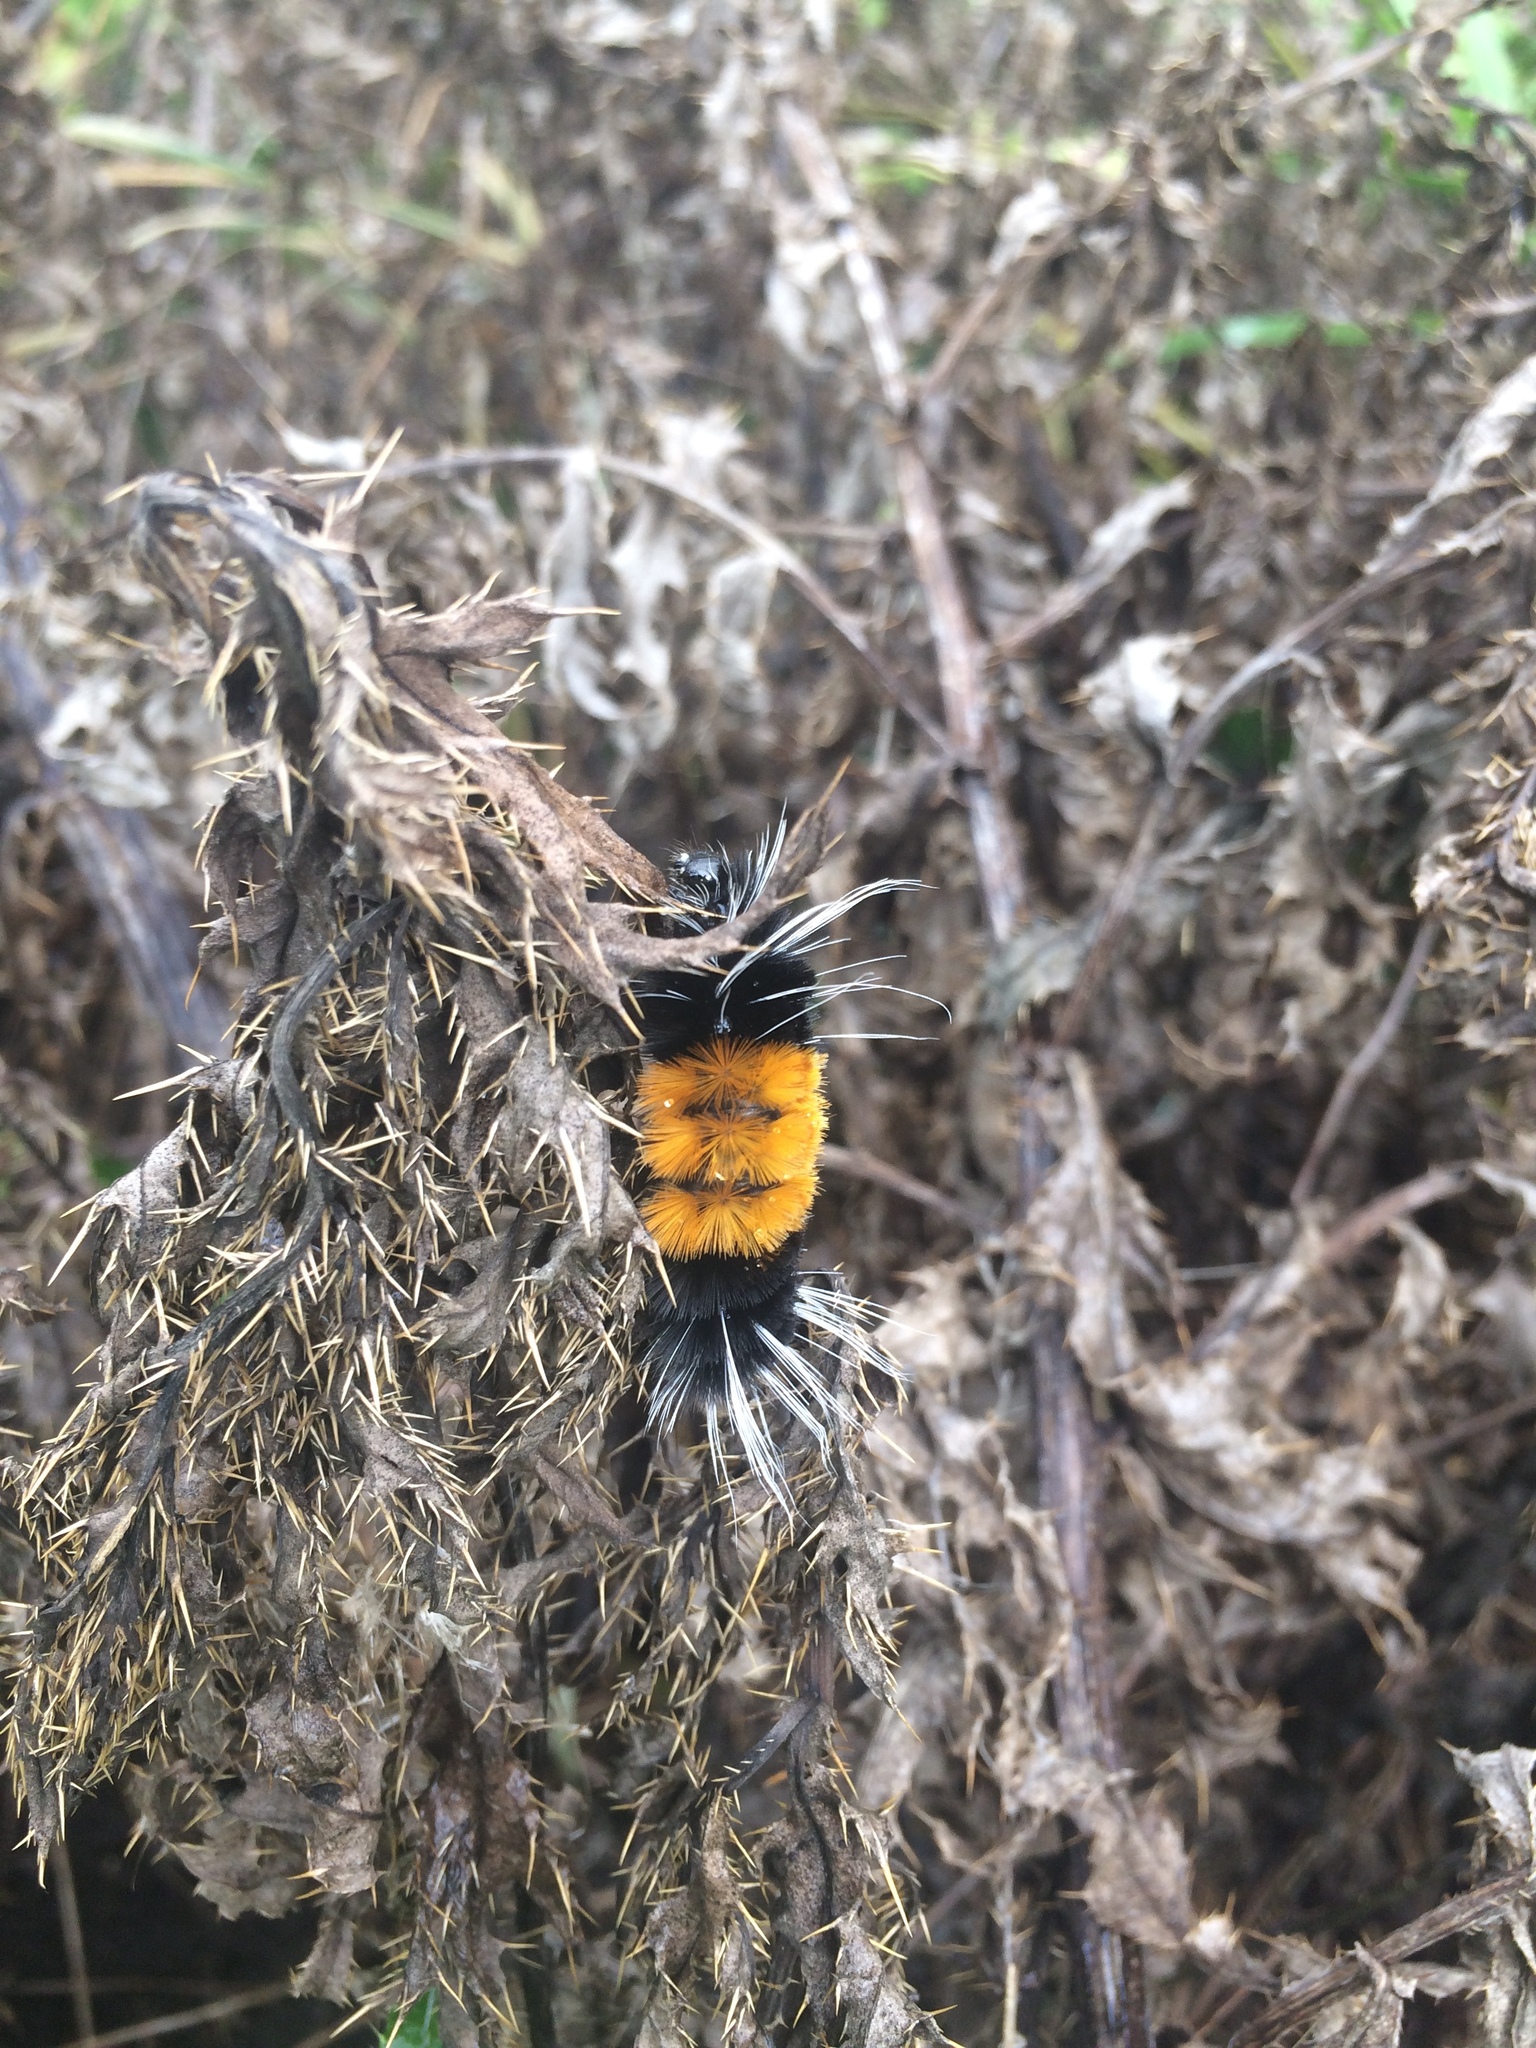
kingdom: Animalia
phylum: Arthropoda
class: Insecta
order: Lepidoptera
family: Erebidae
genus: Lophocampa
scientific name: Lophocampa maculata
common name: Spotted tussock moth
